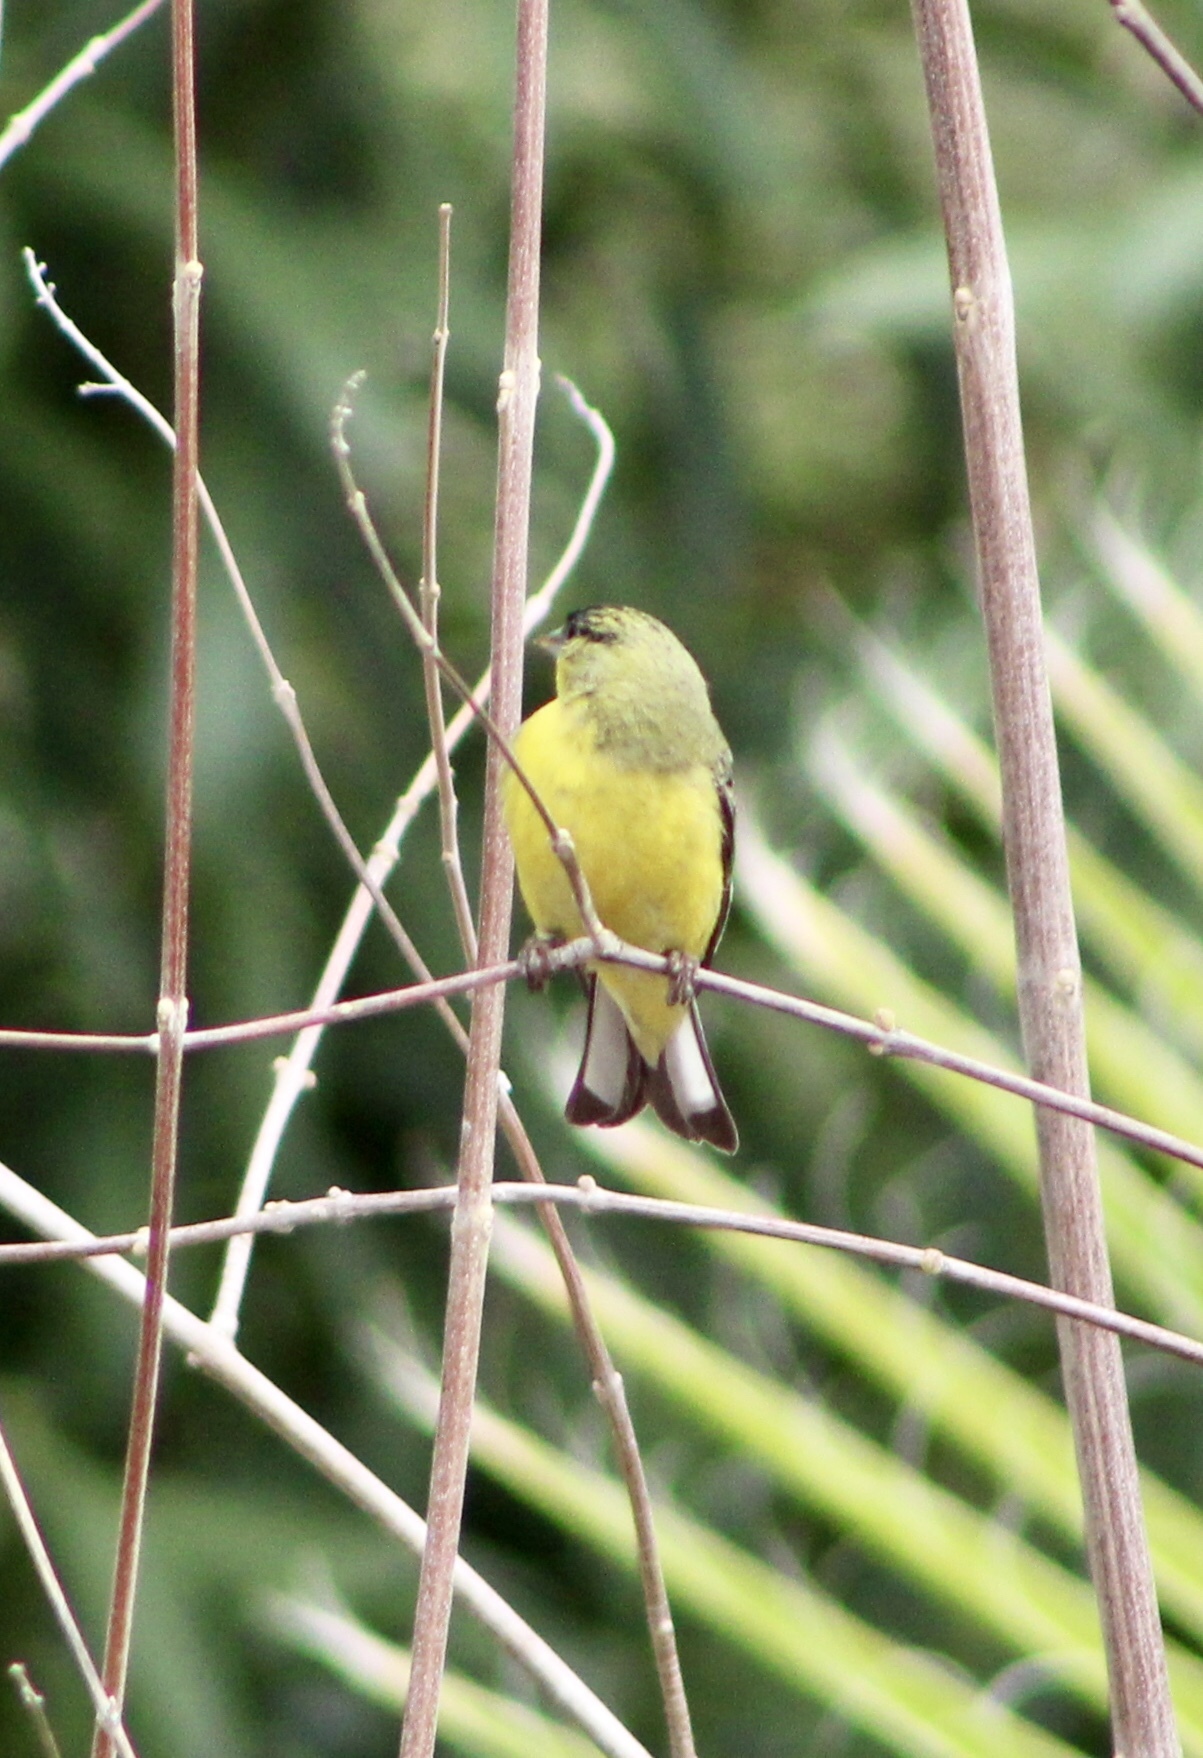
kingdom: Animalia
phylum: Chordata
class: Aves
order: Passeriformes
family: Fringillidae
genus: Spinus
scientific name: Spinus psaltria
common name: Lesser goldfinch
